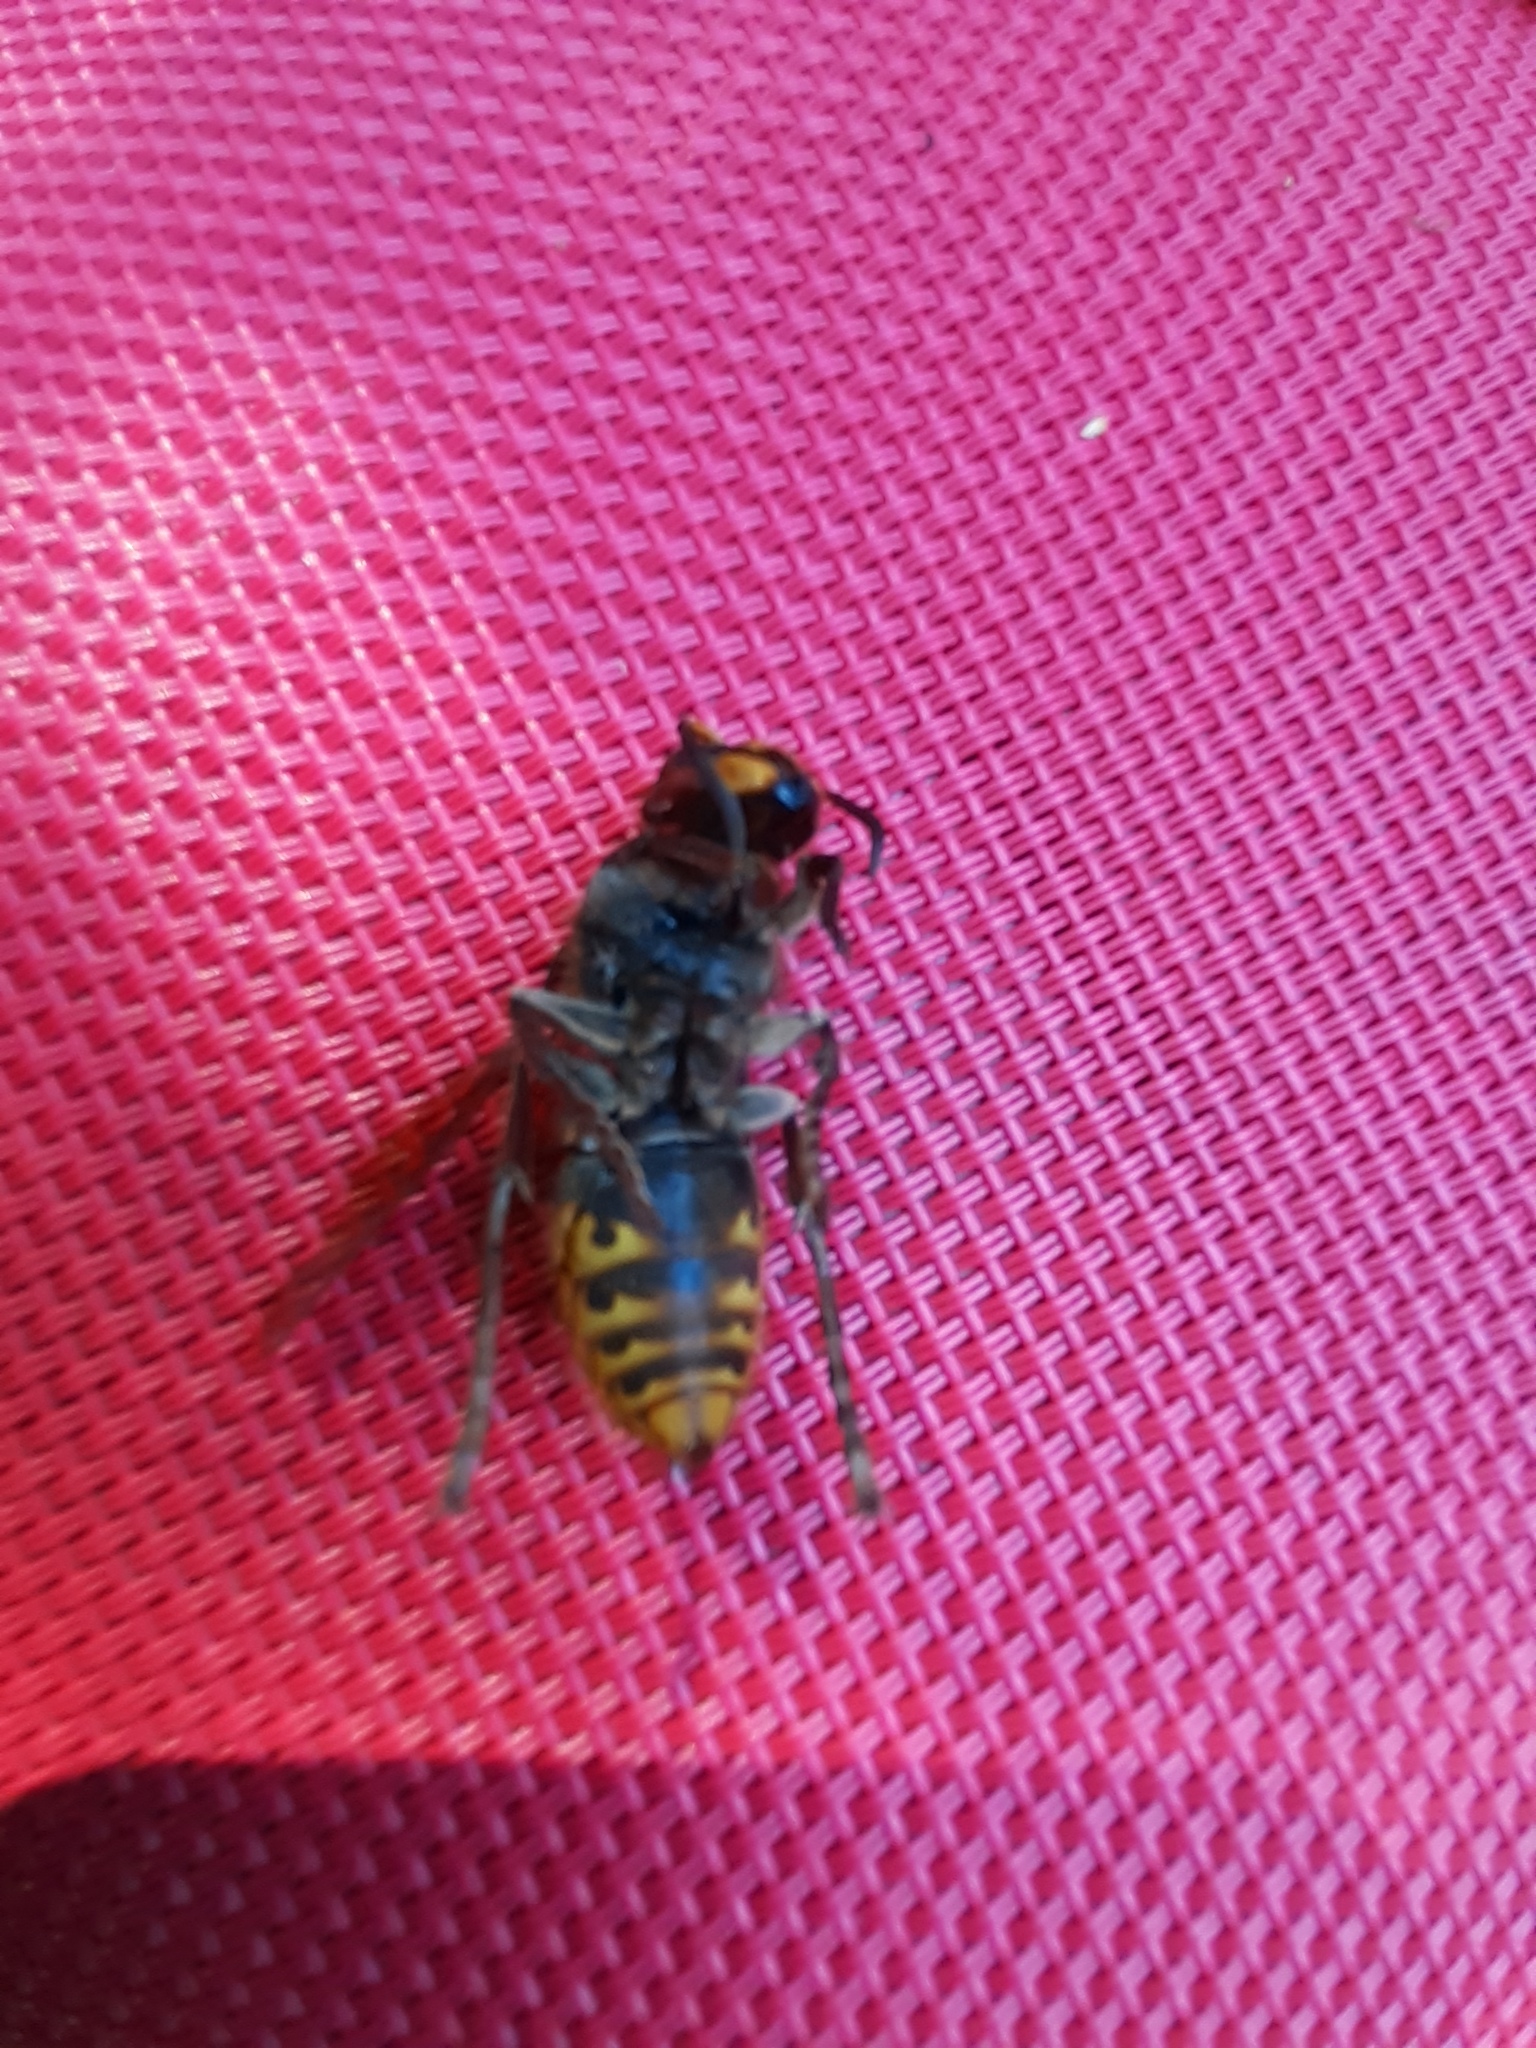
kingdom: Animalia
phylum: Arthropoda
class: Insecta
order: Hymenoptera
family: Vespidae
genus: Vespa
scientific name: Vespa crabro
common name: Hornet
